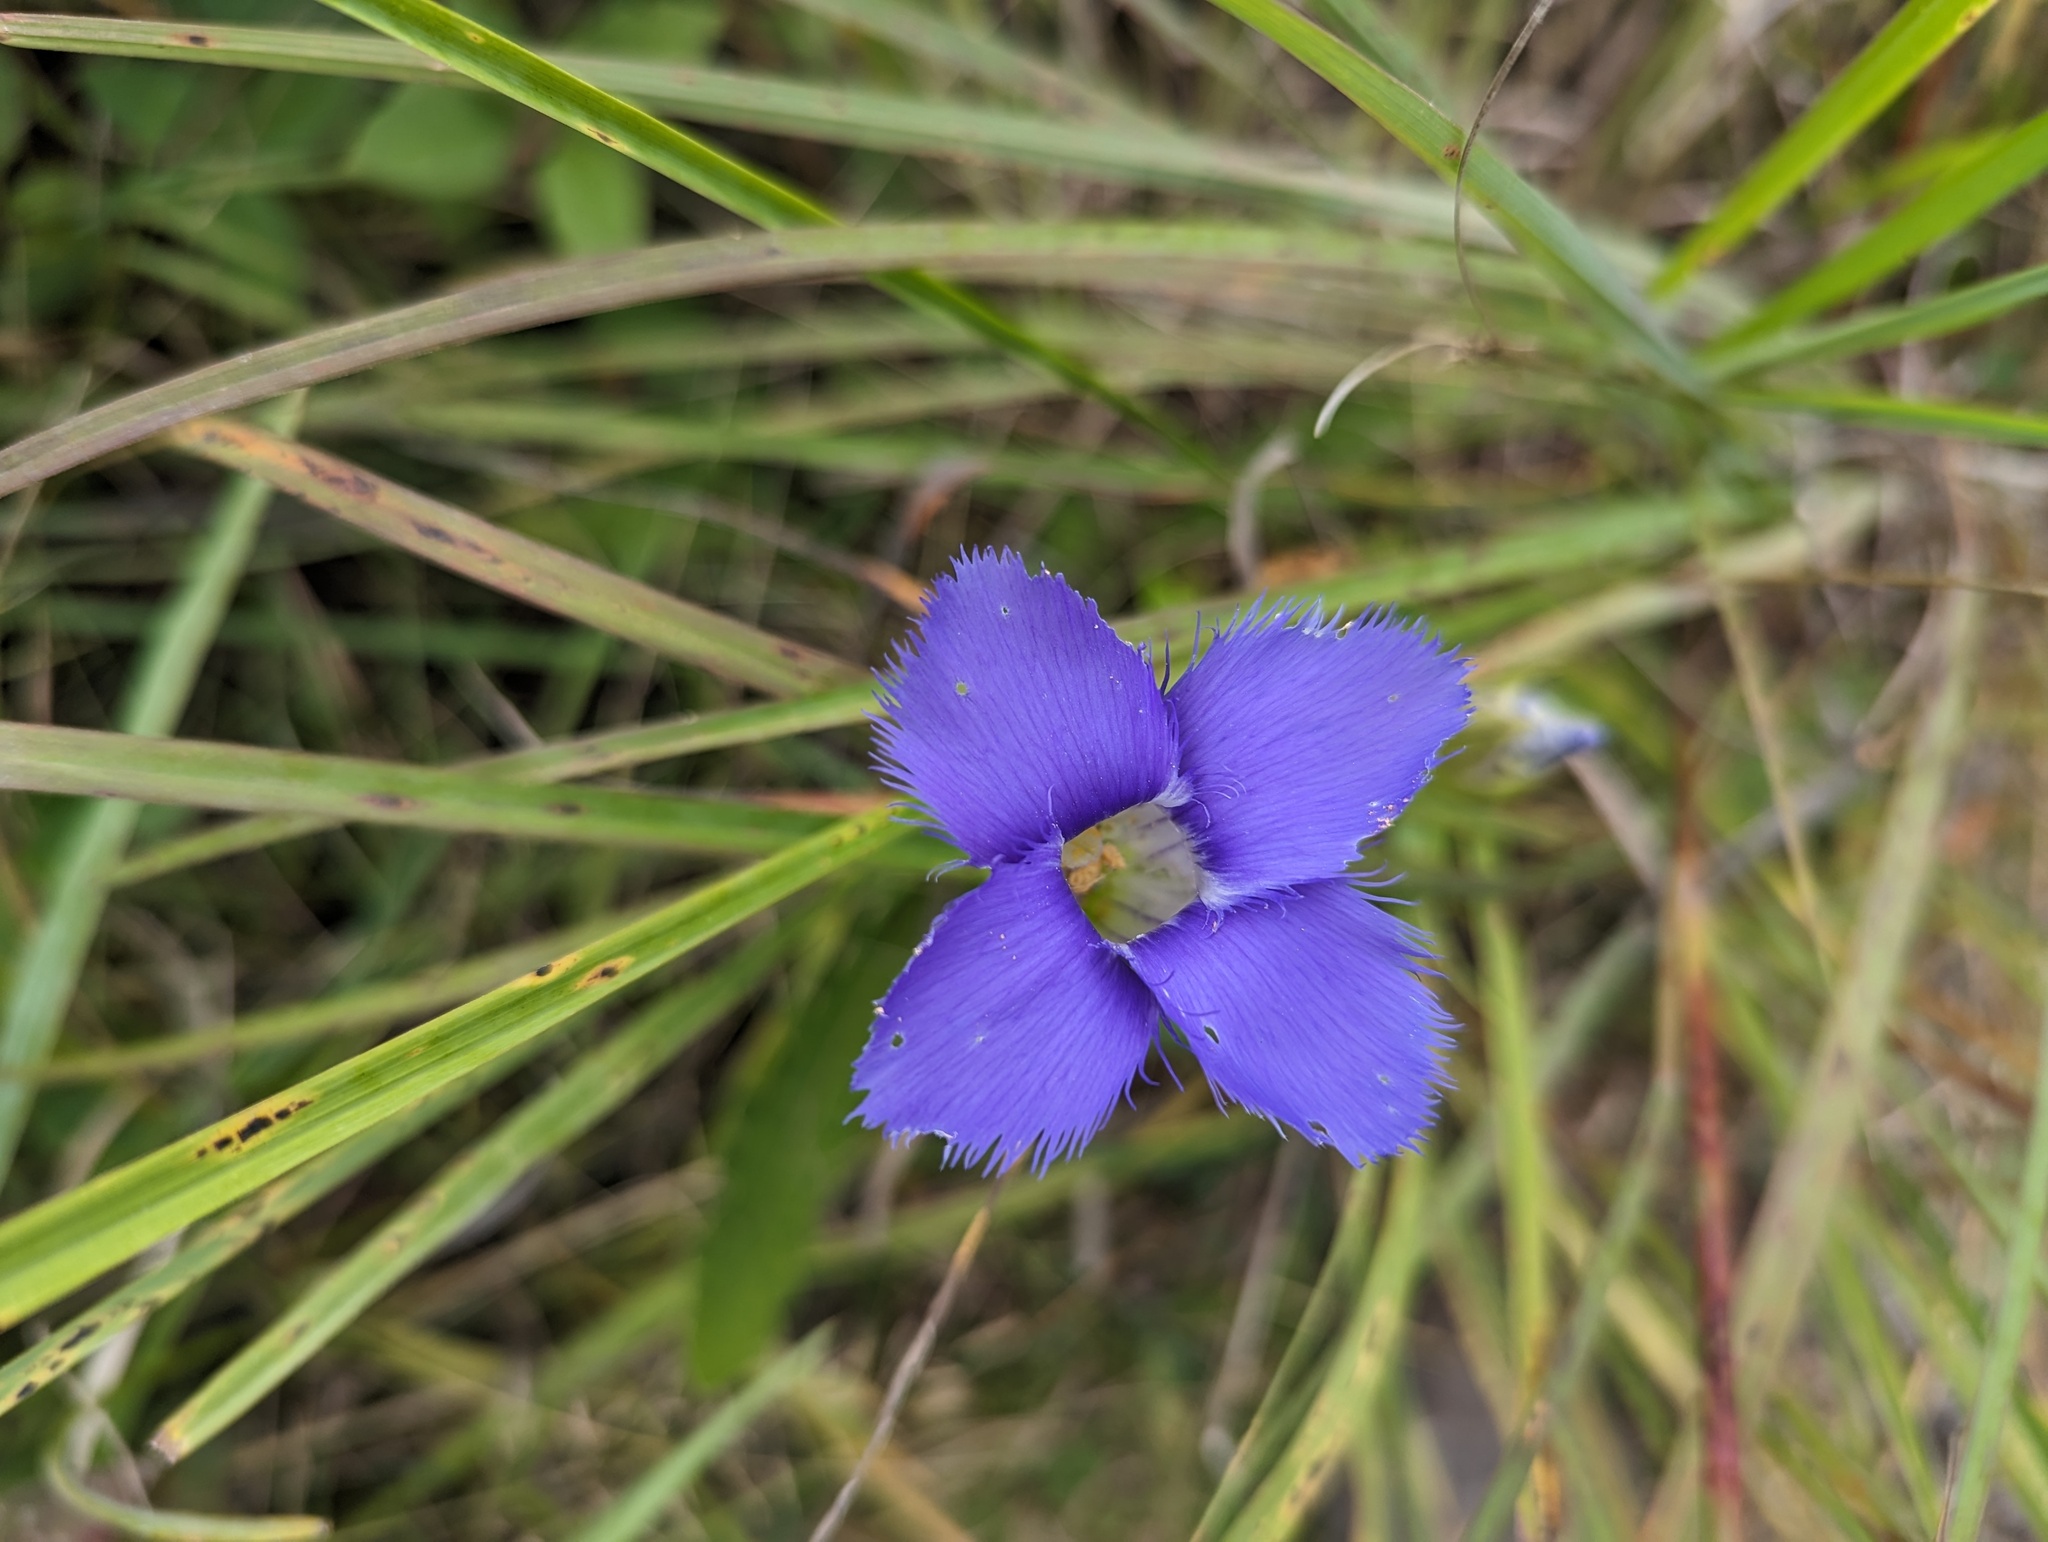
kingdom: Plantae
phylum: Tracheophyta
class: Magnoliopsida
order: Gentianales
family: Gentianaceae
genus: Gentianopsis
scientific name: Gentianopsis crinita
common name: Fringed-gentian
